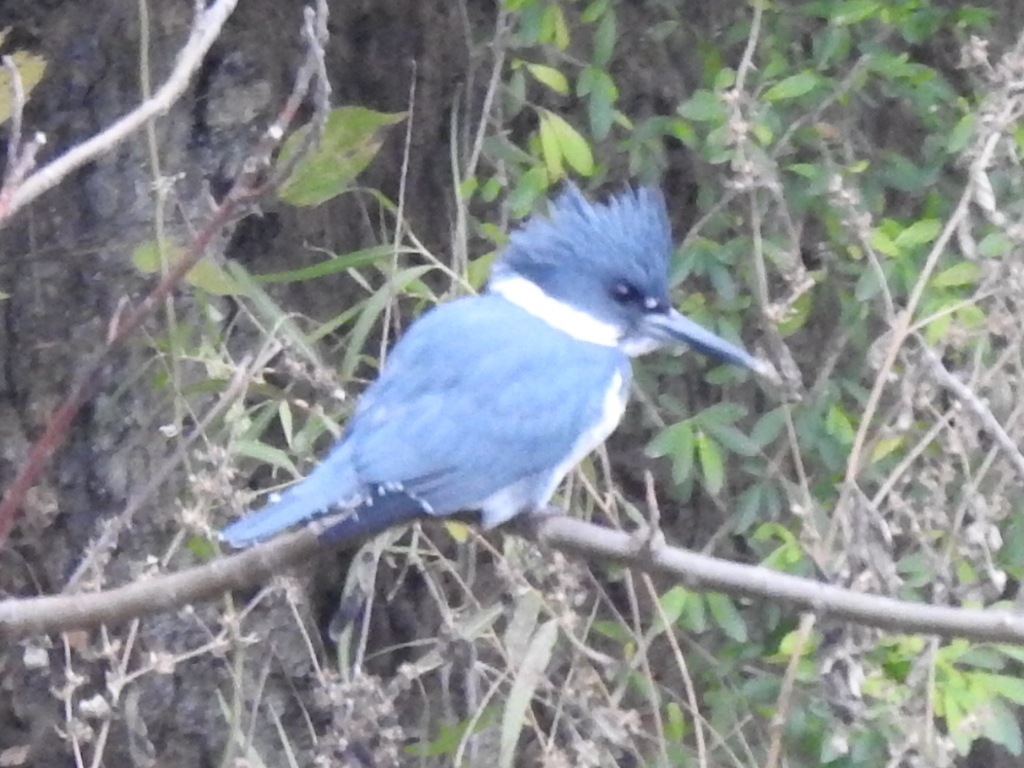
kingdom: Animalia
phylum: Chordata
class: Aves
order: Coraciiformes
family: Alcedinidae
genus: Megaceryle
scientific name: Megaceryle alcyon
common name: Belted kingfisher
